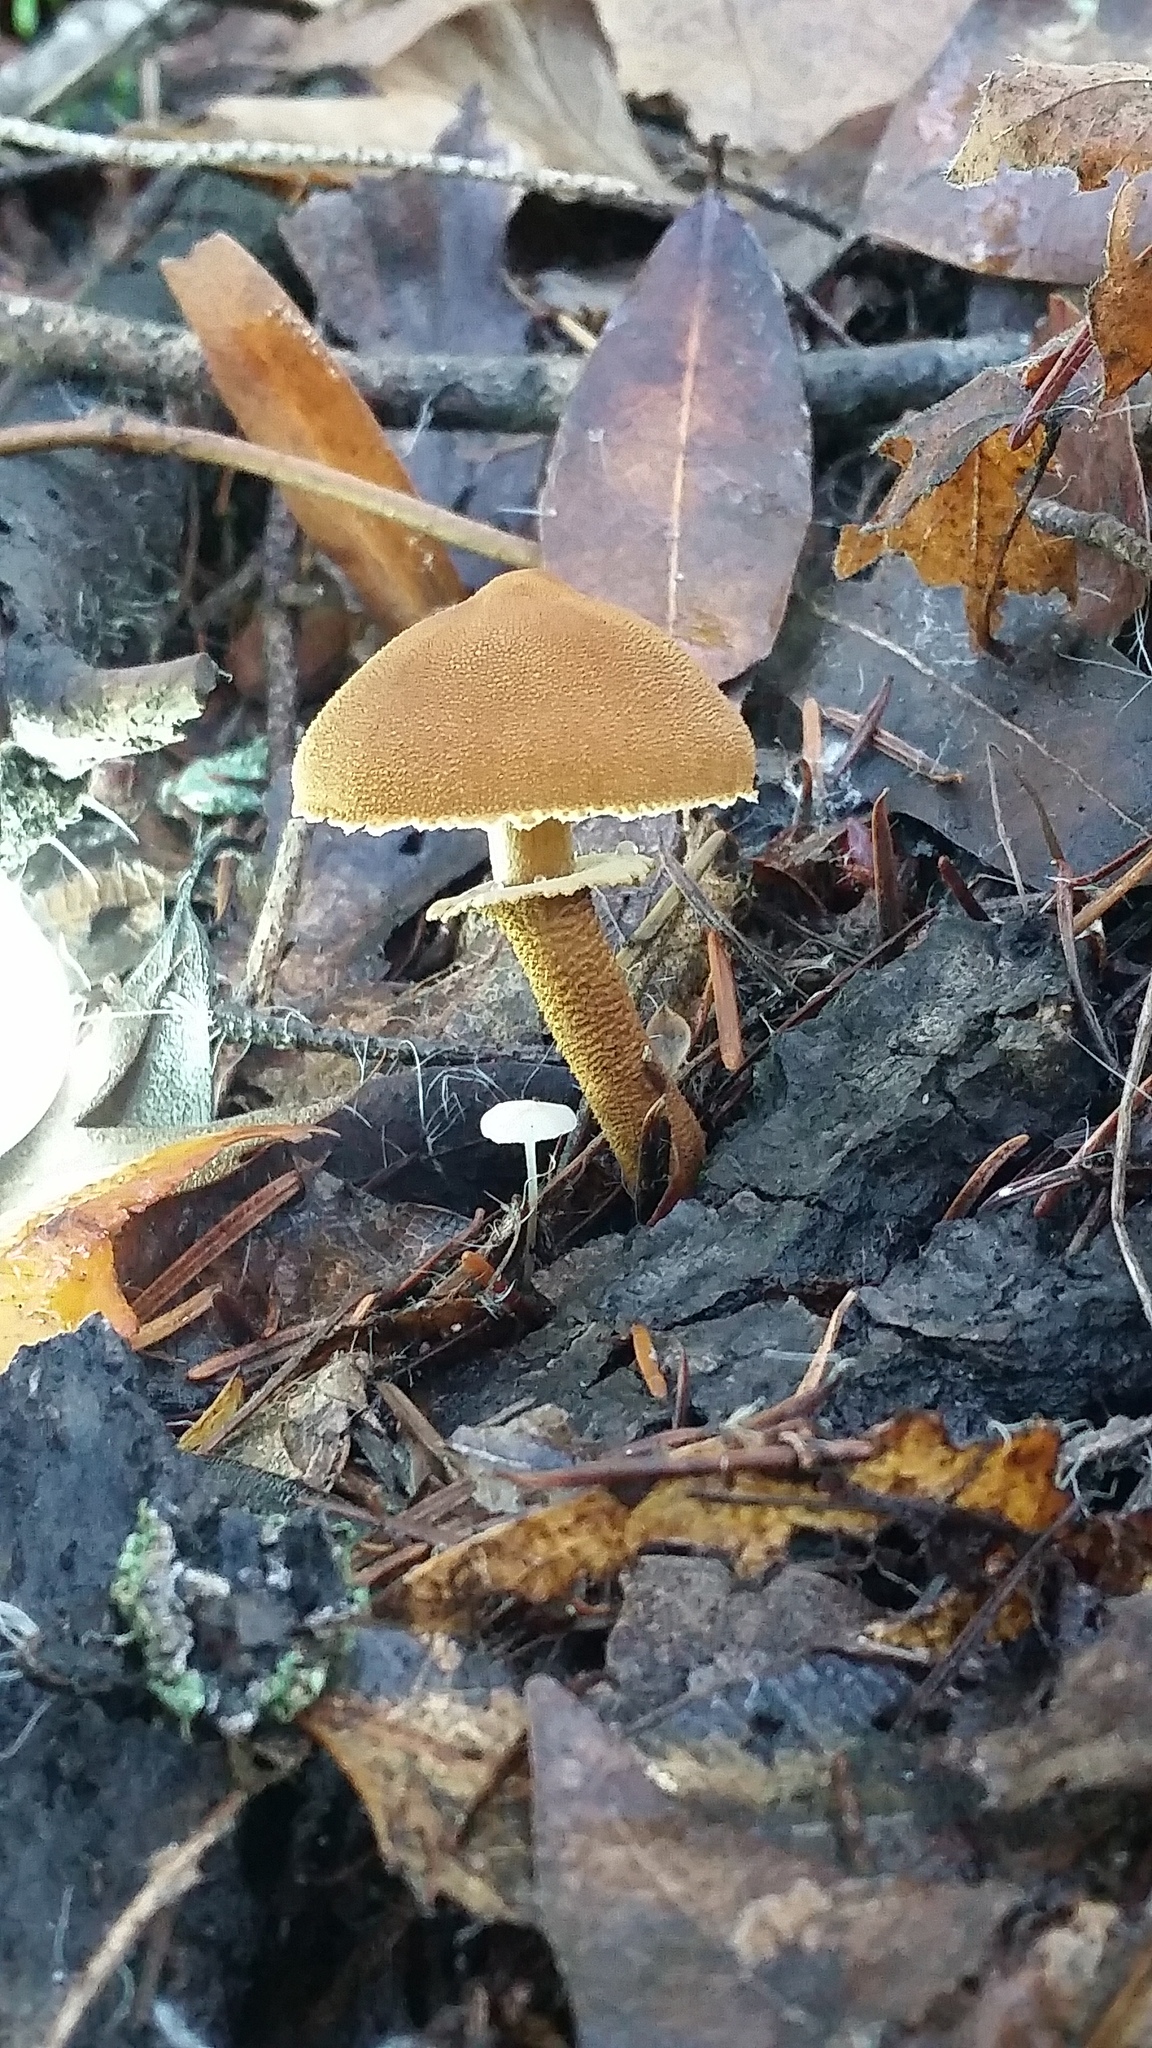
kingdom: Fungi
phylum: Basidiomycota
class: Agaricomycetes
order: Agaricales
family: Tricholomataceae
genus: Cystoderma
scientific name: Cystoderma fallax
